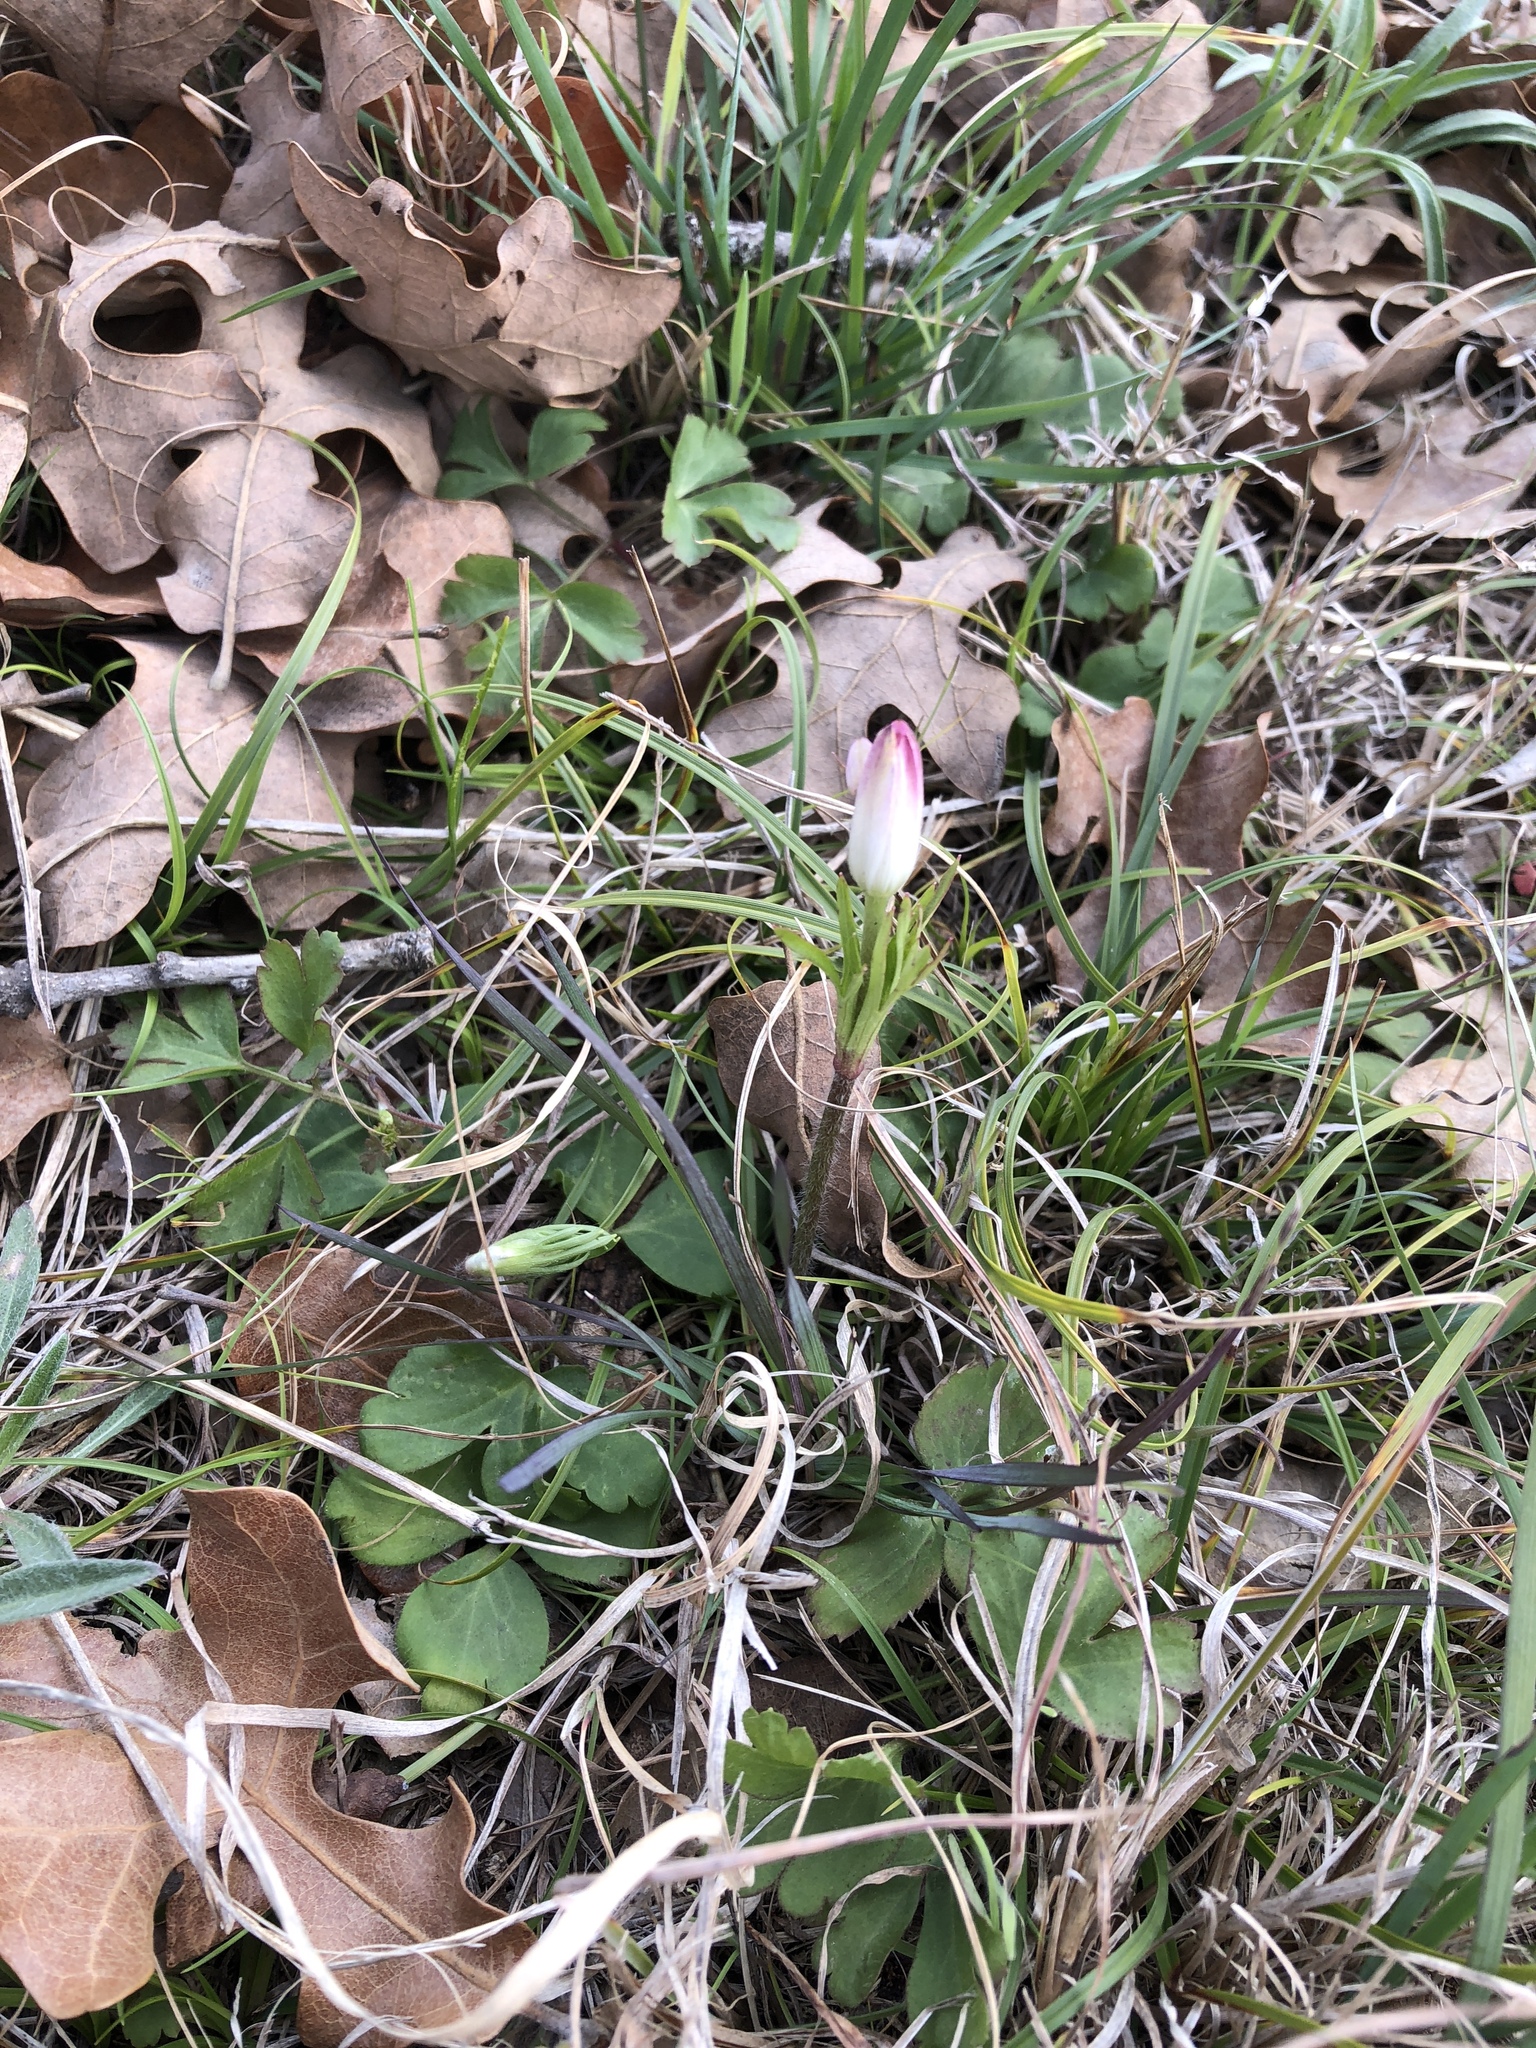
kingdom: Plantae
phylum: Tracheophyta
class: Magnoliopsida
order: Ranunculales
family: Ranunculaceae
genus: Anemone
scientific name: Anemone berlandieri
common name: Ten-petal anemone
